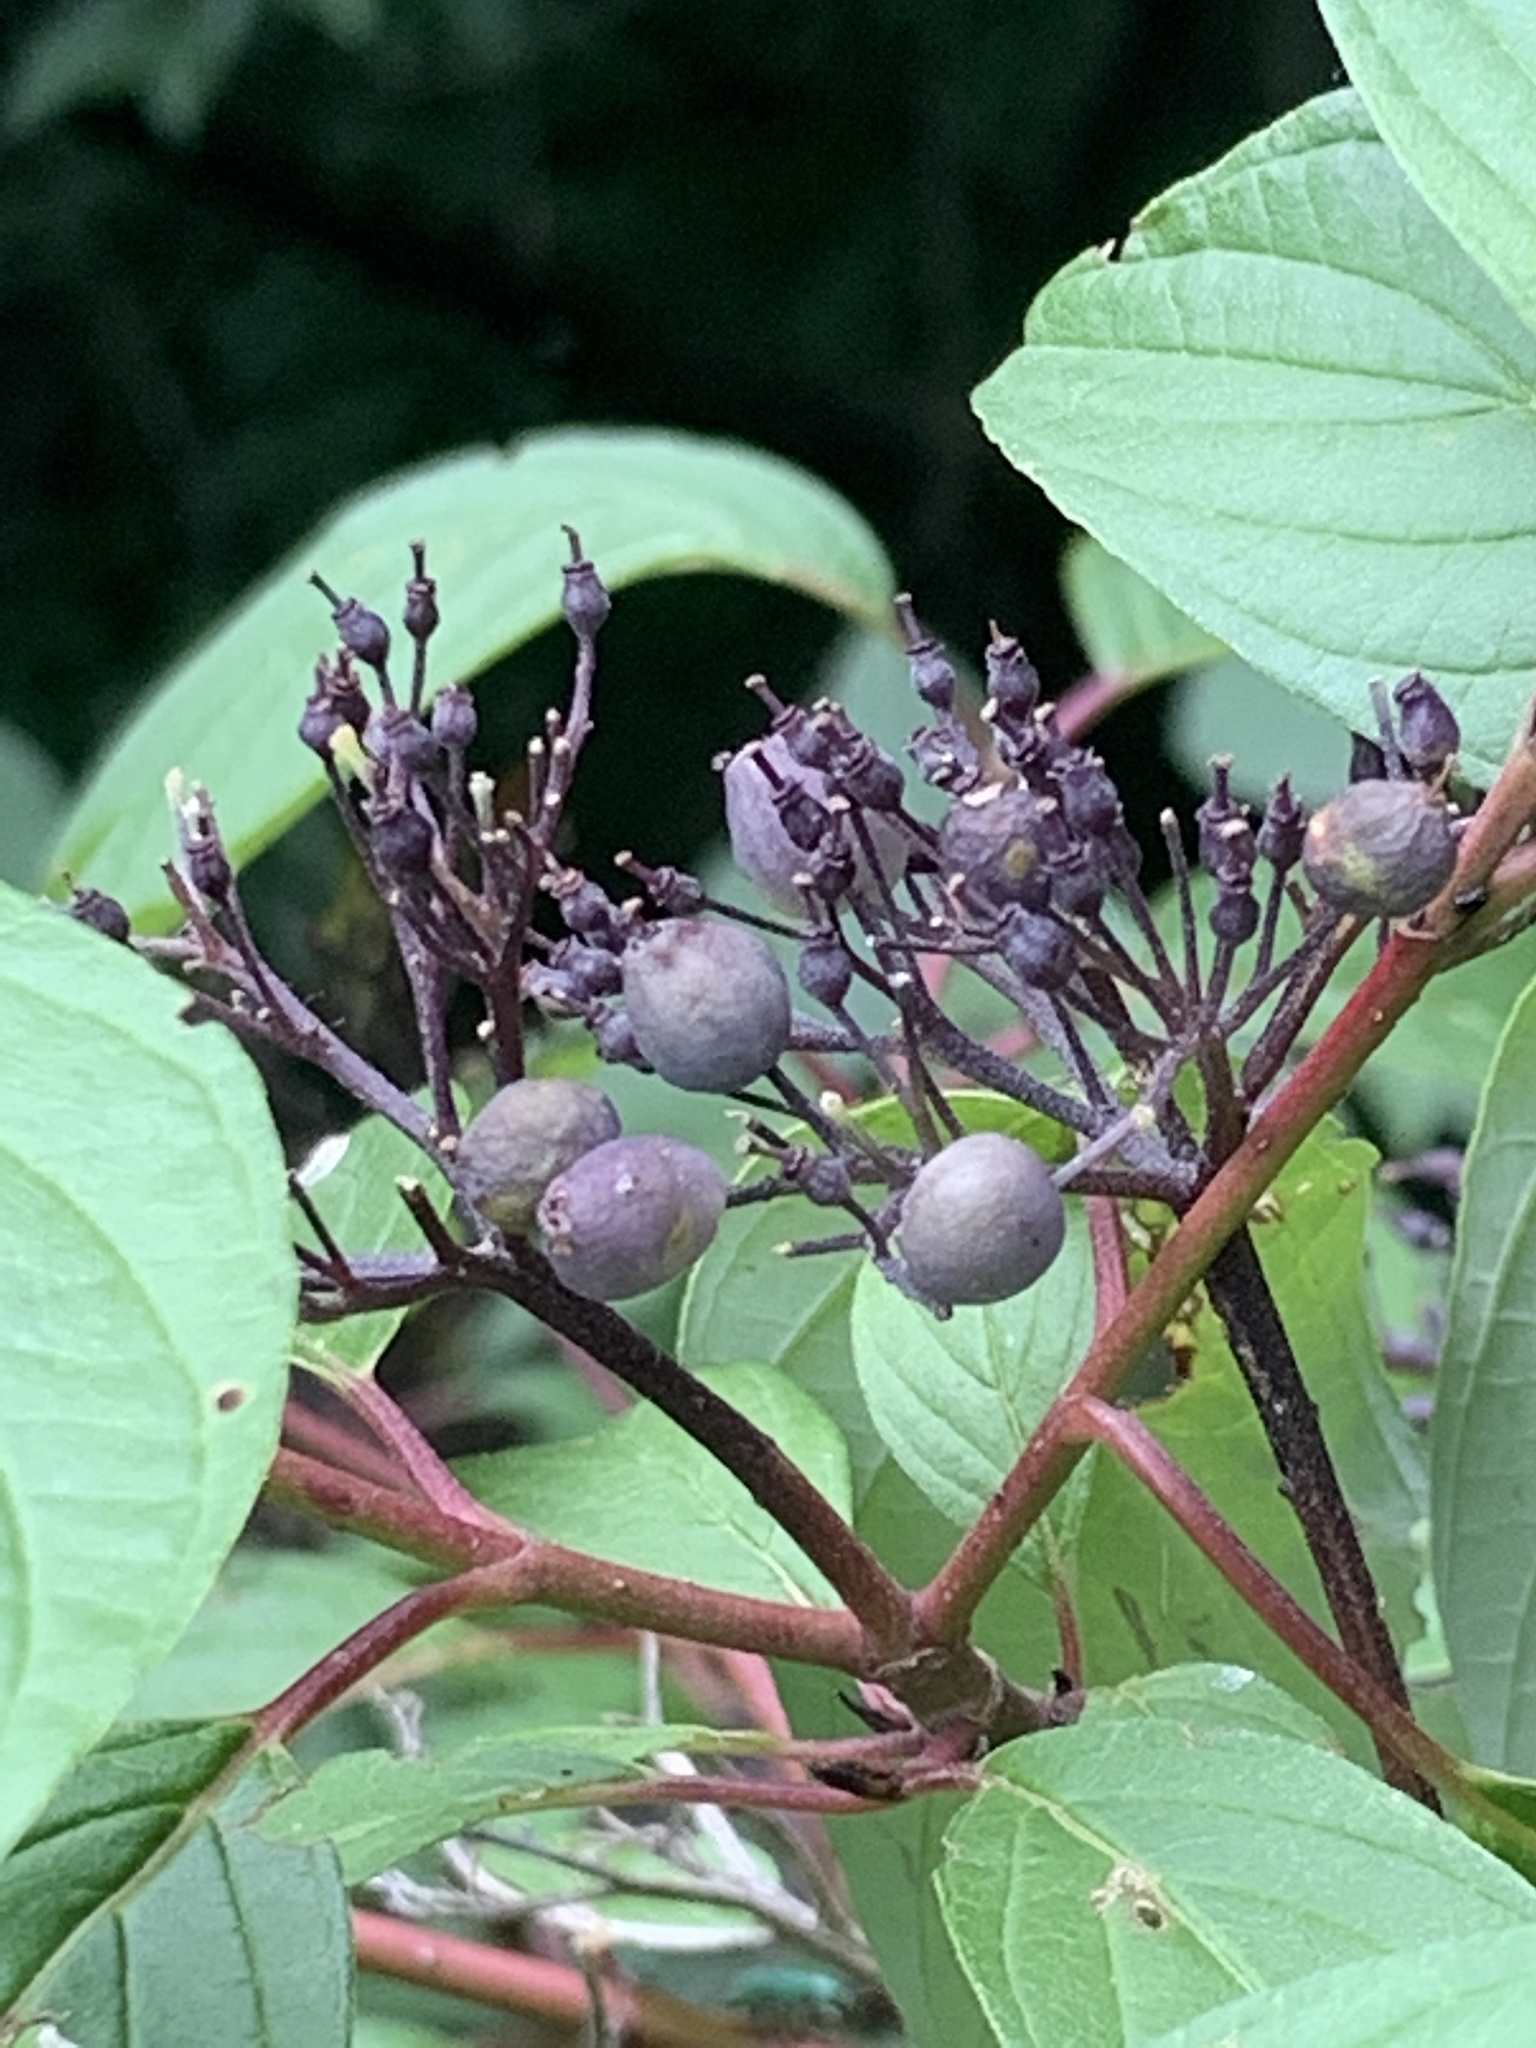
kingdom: Plantae
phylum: Tracheophyta
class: Magnoliopsida
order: Cornales
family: Cornaceae
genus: Cornus
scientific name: Cornus sericea
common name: Red-osier dogwood
